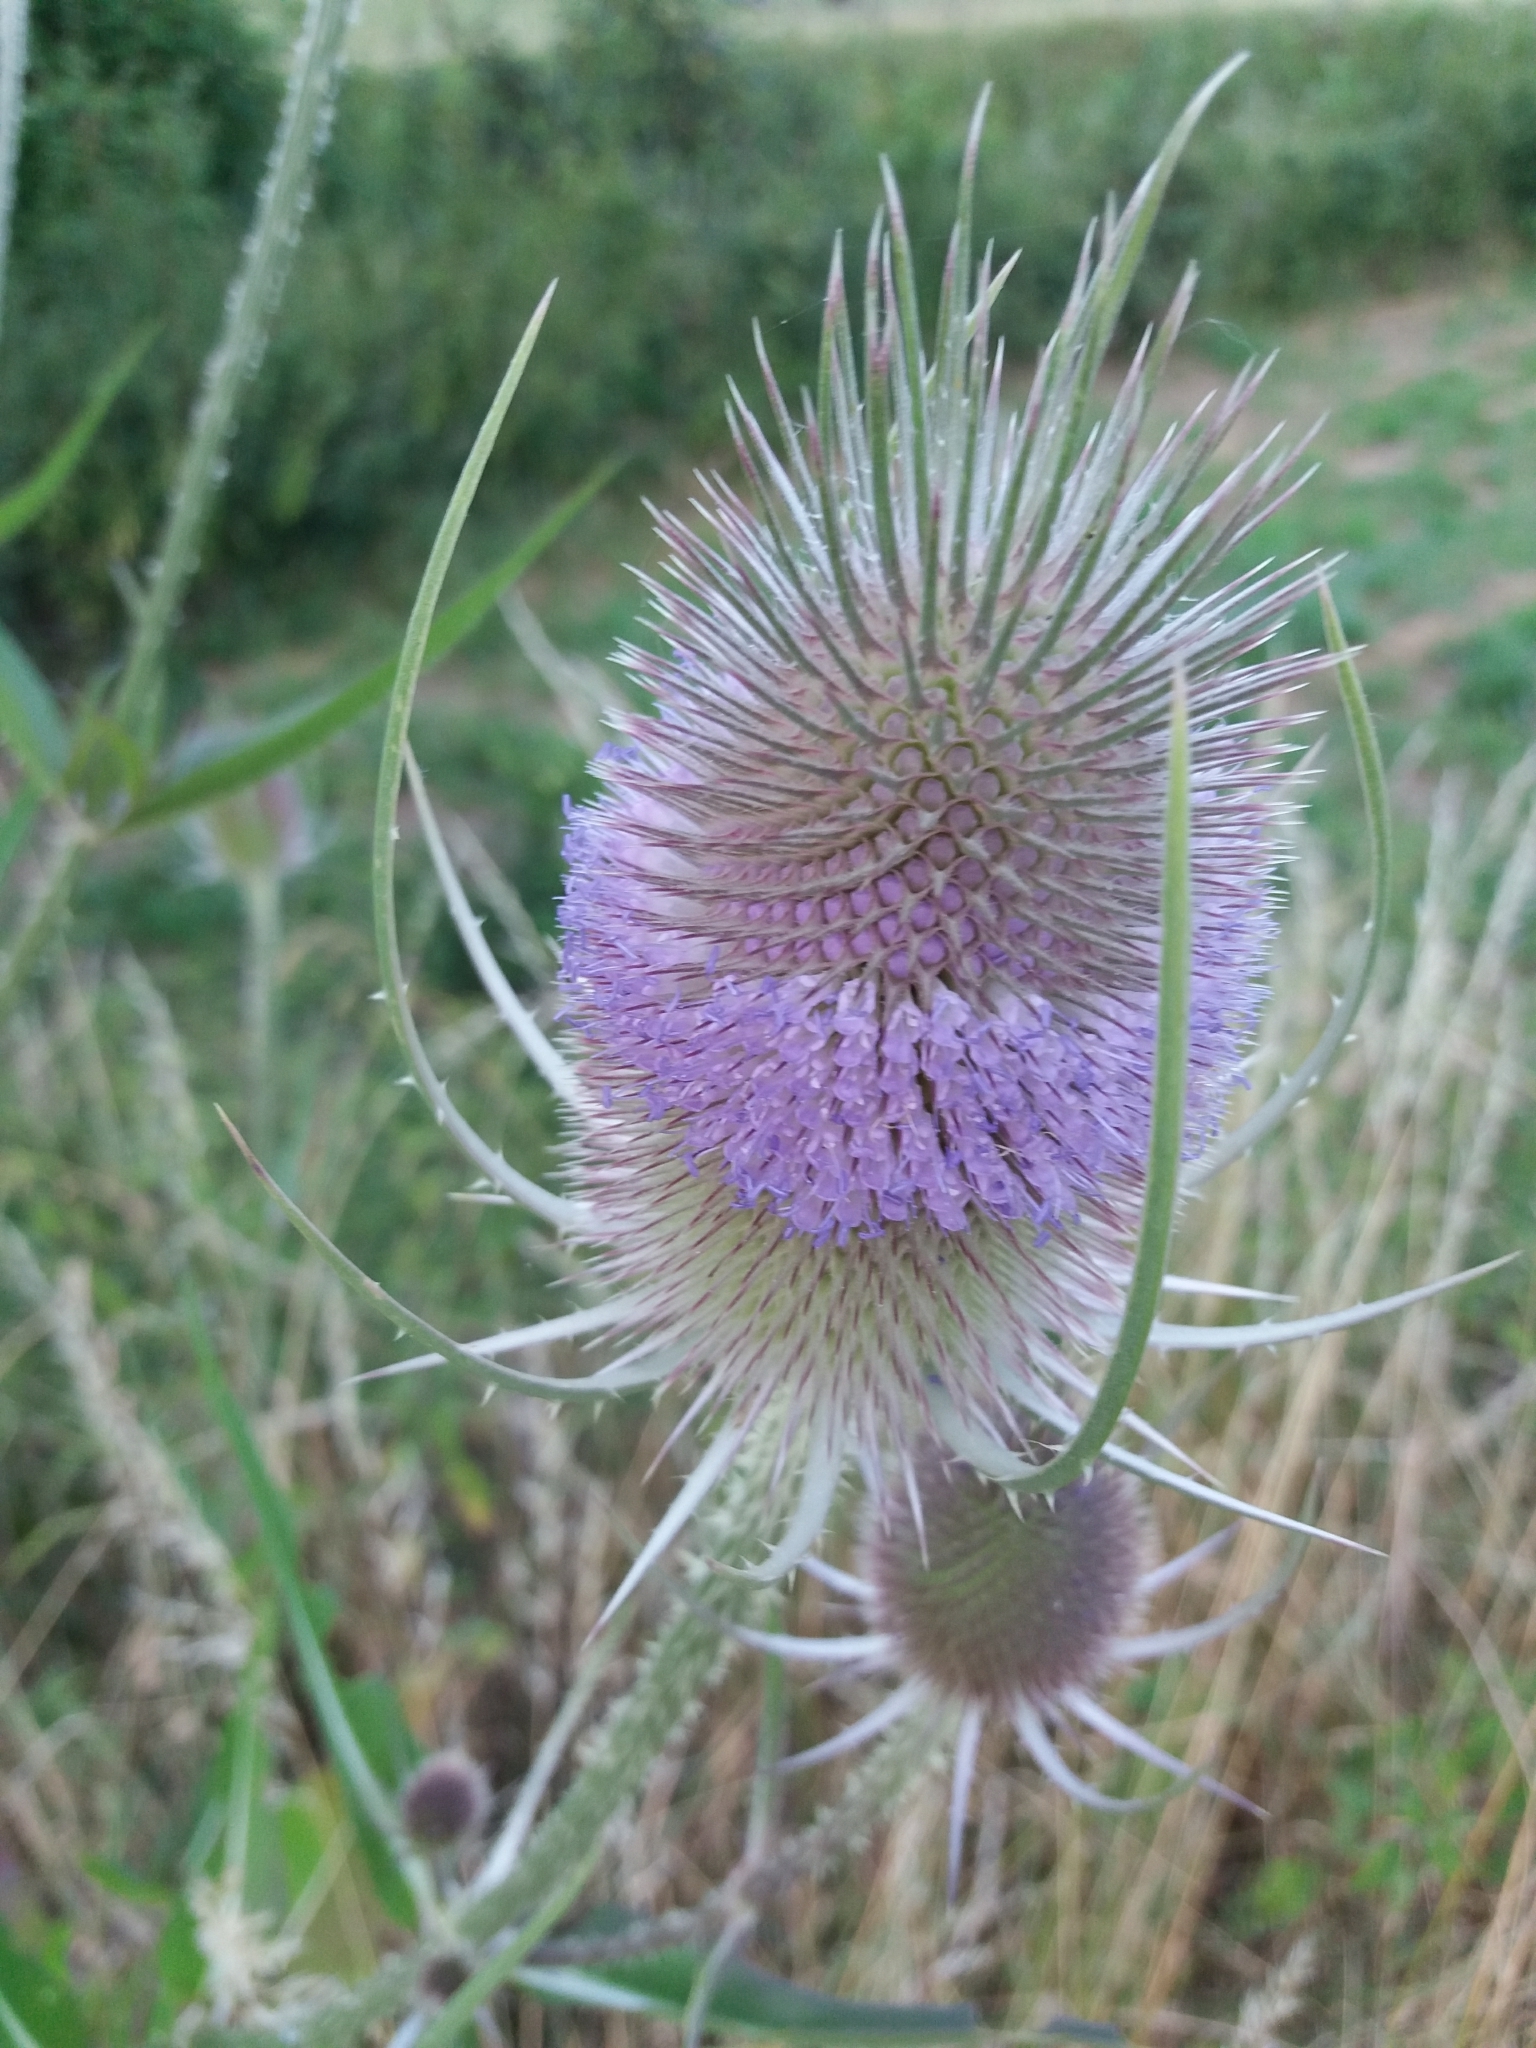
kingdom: Plantae
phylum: Tracheophyta
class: Magnoliopsida
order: Dipsacales
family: Caprifoliaceae
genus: Dipsacus
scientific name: Dipsacus fullonum
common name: Teasel
